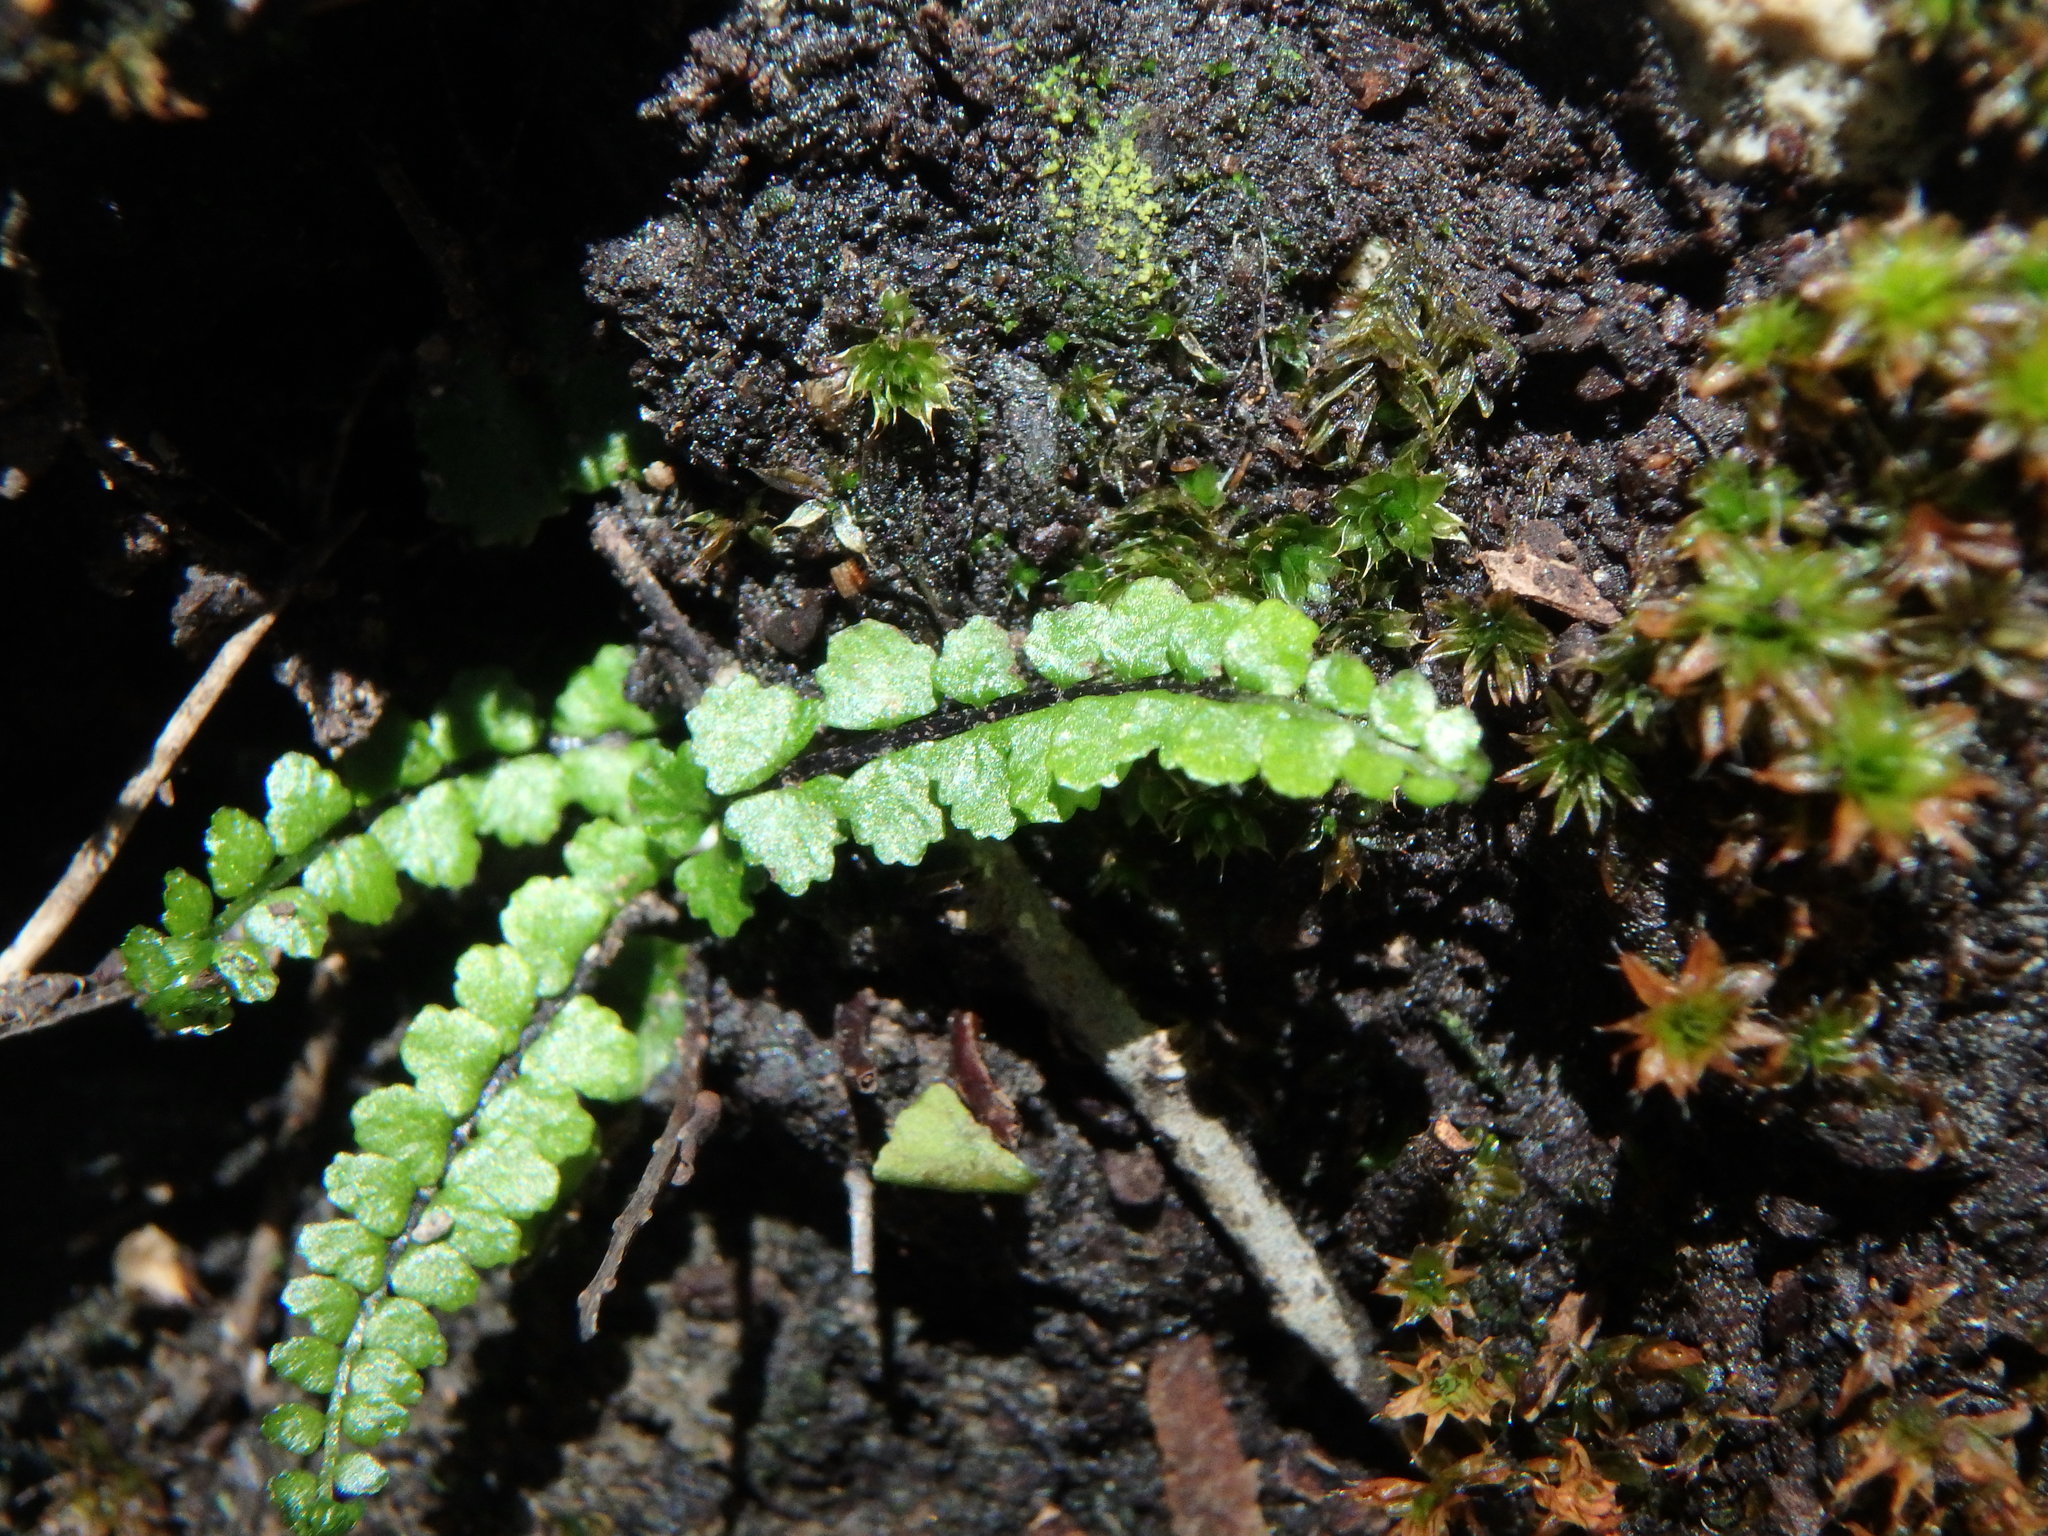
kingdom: Plantae
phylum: Tracheophyta
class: Polypodiopsida
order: Polypodiales
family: Aspleniaceae
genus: Asplenium
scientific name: Asplenium trichomanes
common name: Maidenhair spleenwort
